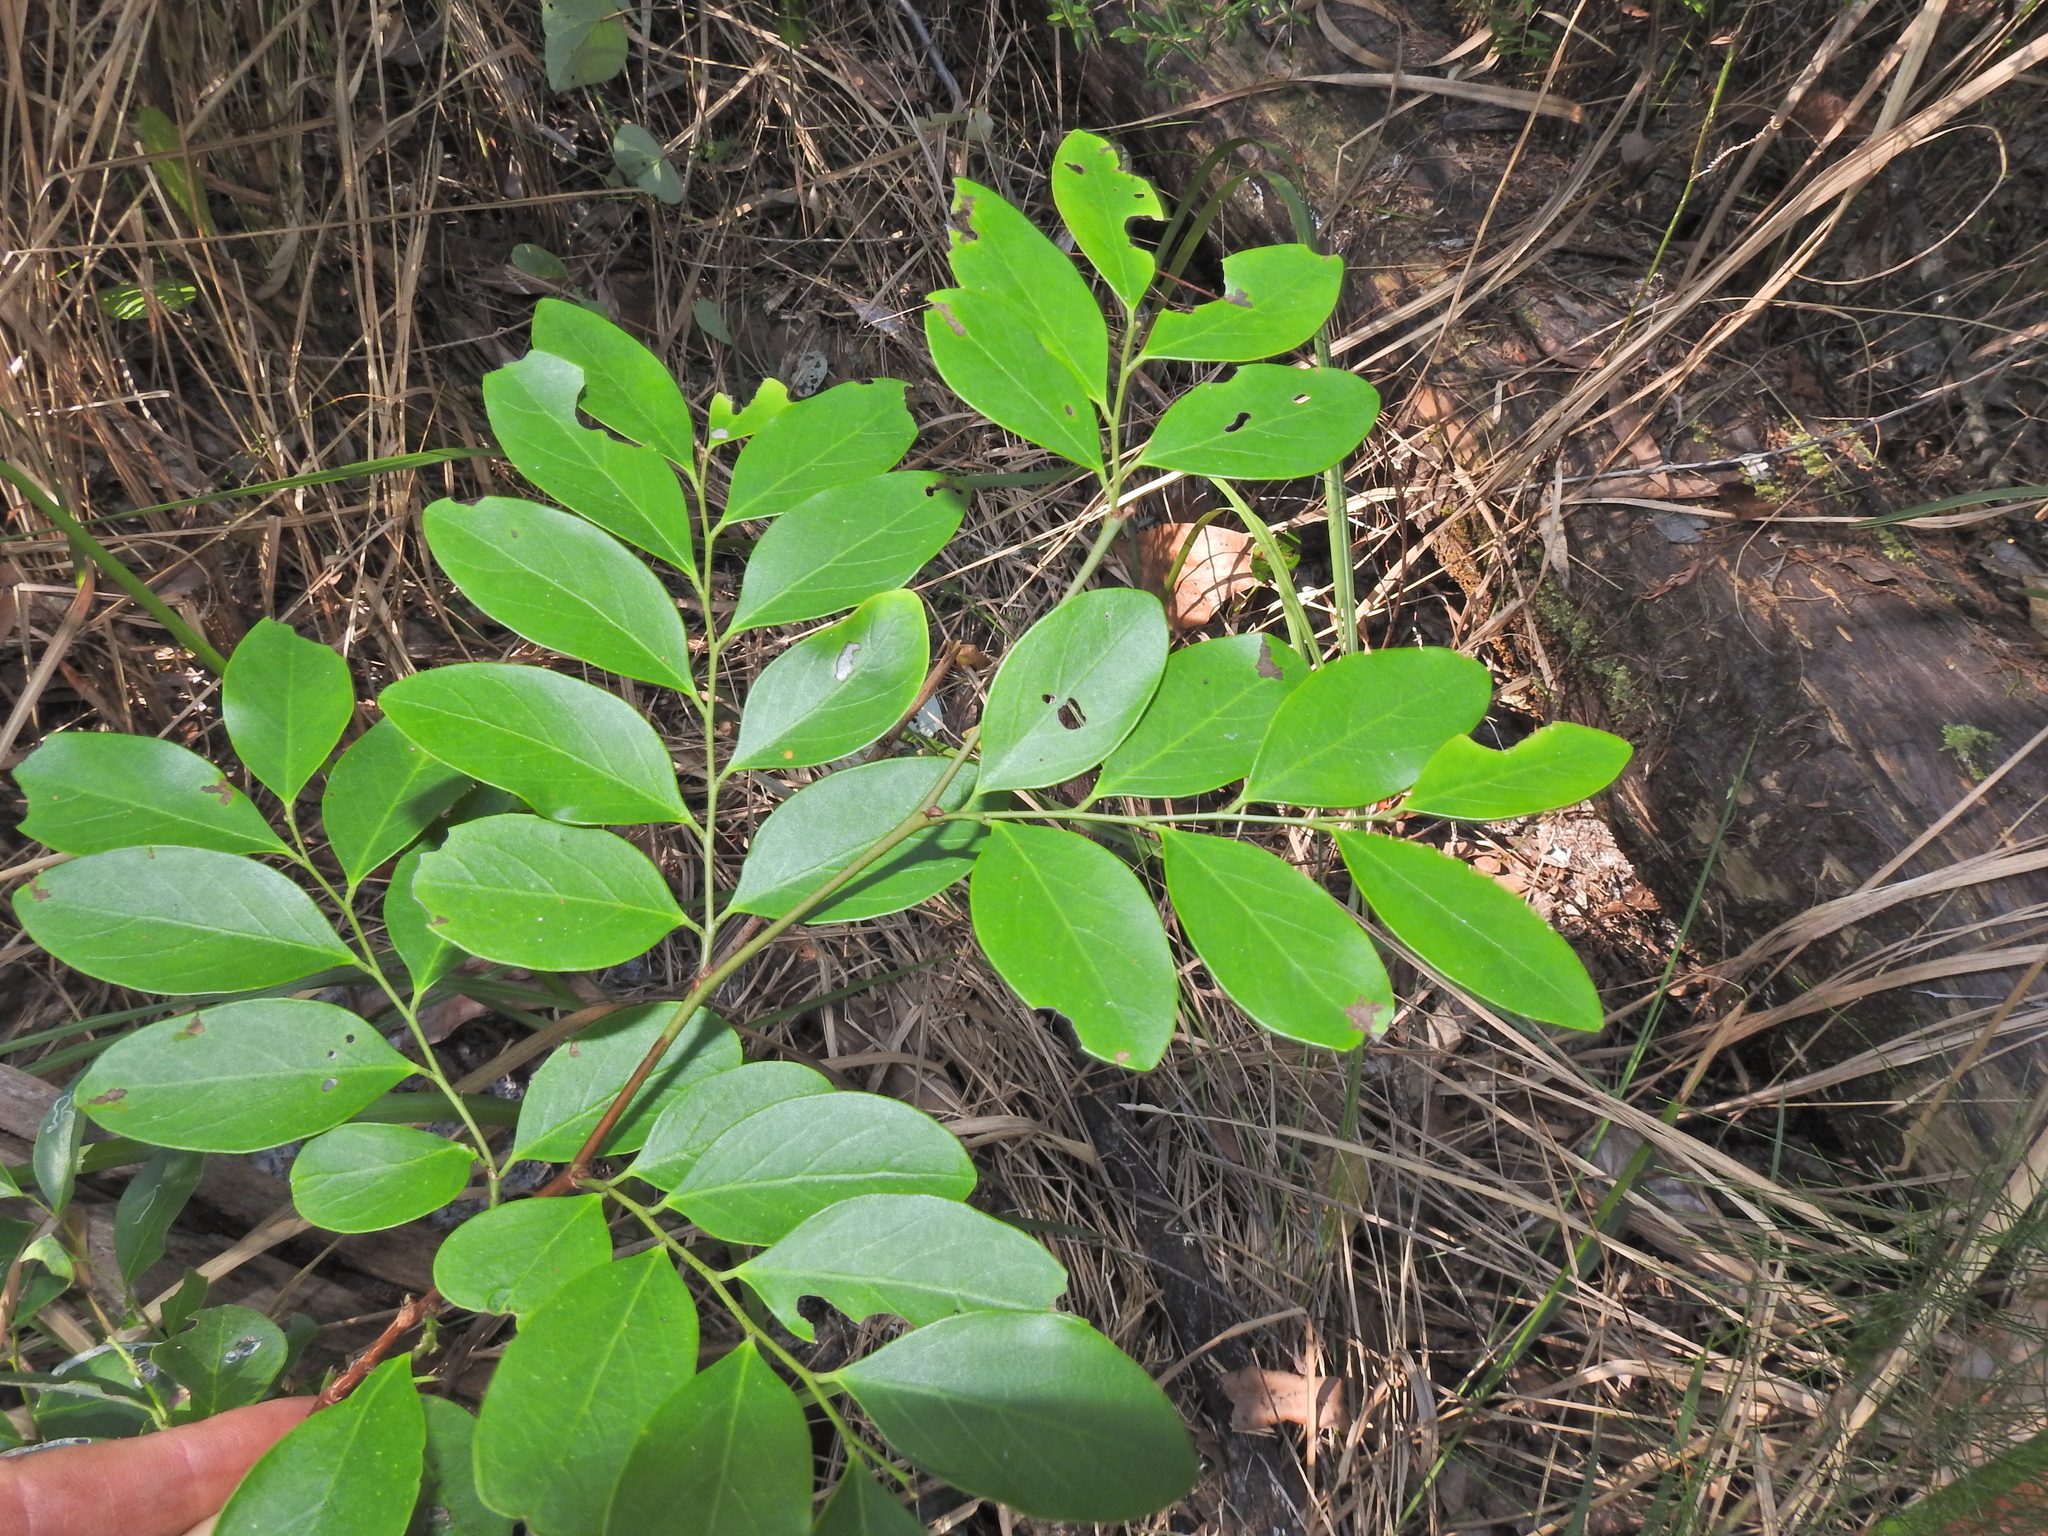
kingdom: Plantae
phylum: Tracheophyta
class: Magnoliopsida
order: Malpighiales
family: Phyllanthaceae
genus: Breynia
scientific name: Breynia oblongifolia
